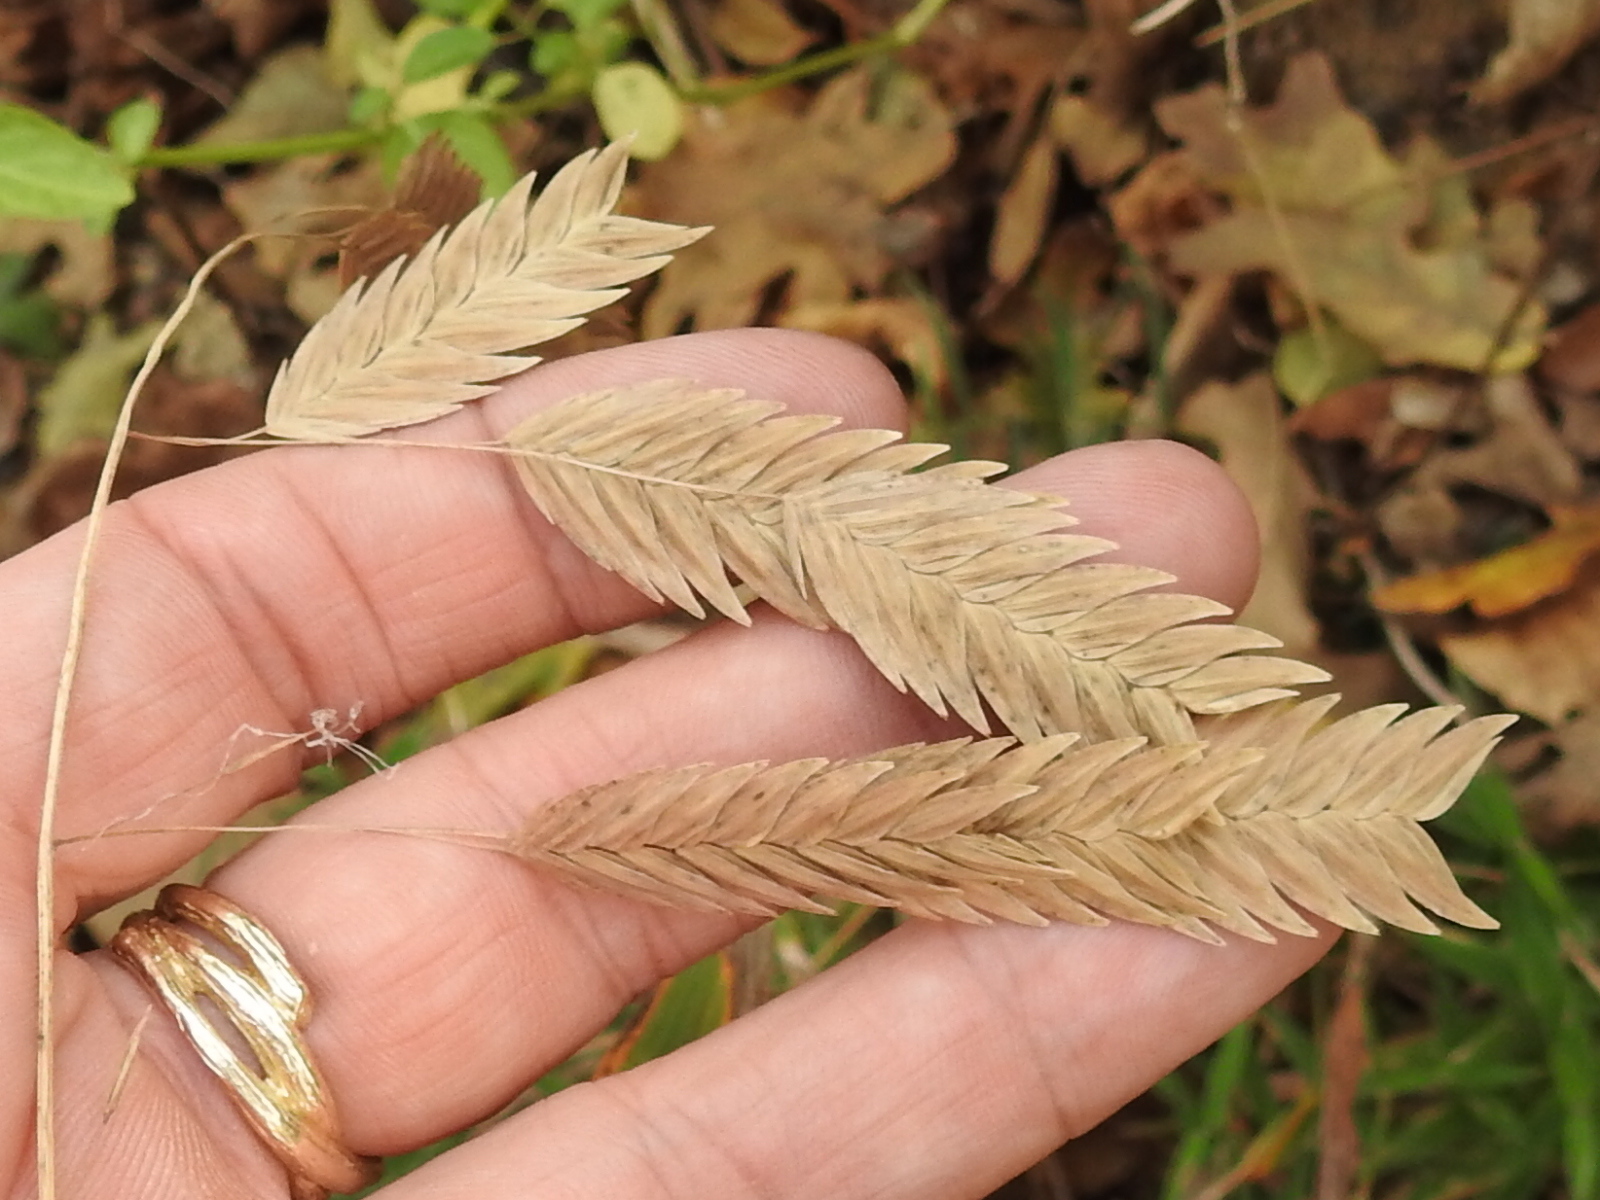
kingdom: Plantae
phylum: Tracheophyta
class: Liliopsida
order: Poales
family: Poaceae
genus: Chasmanthium
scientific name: Chasmanthium latifolium
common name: Broad-leaved chasmanthium
